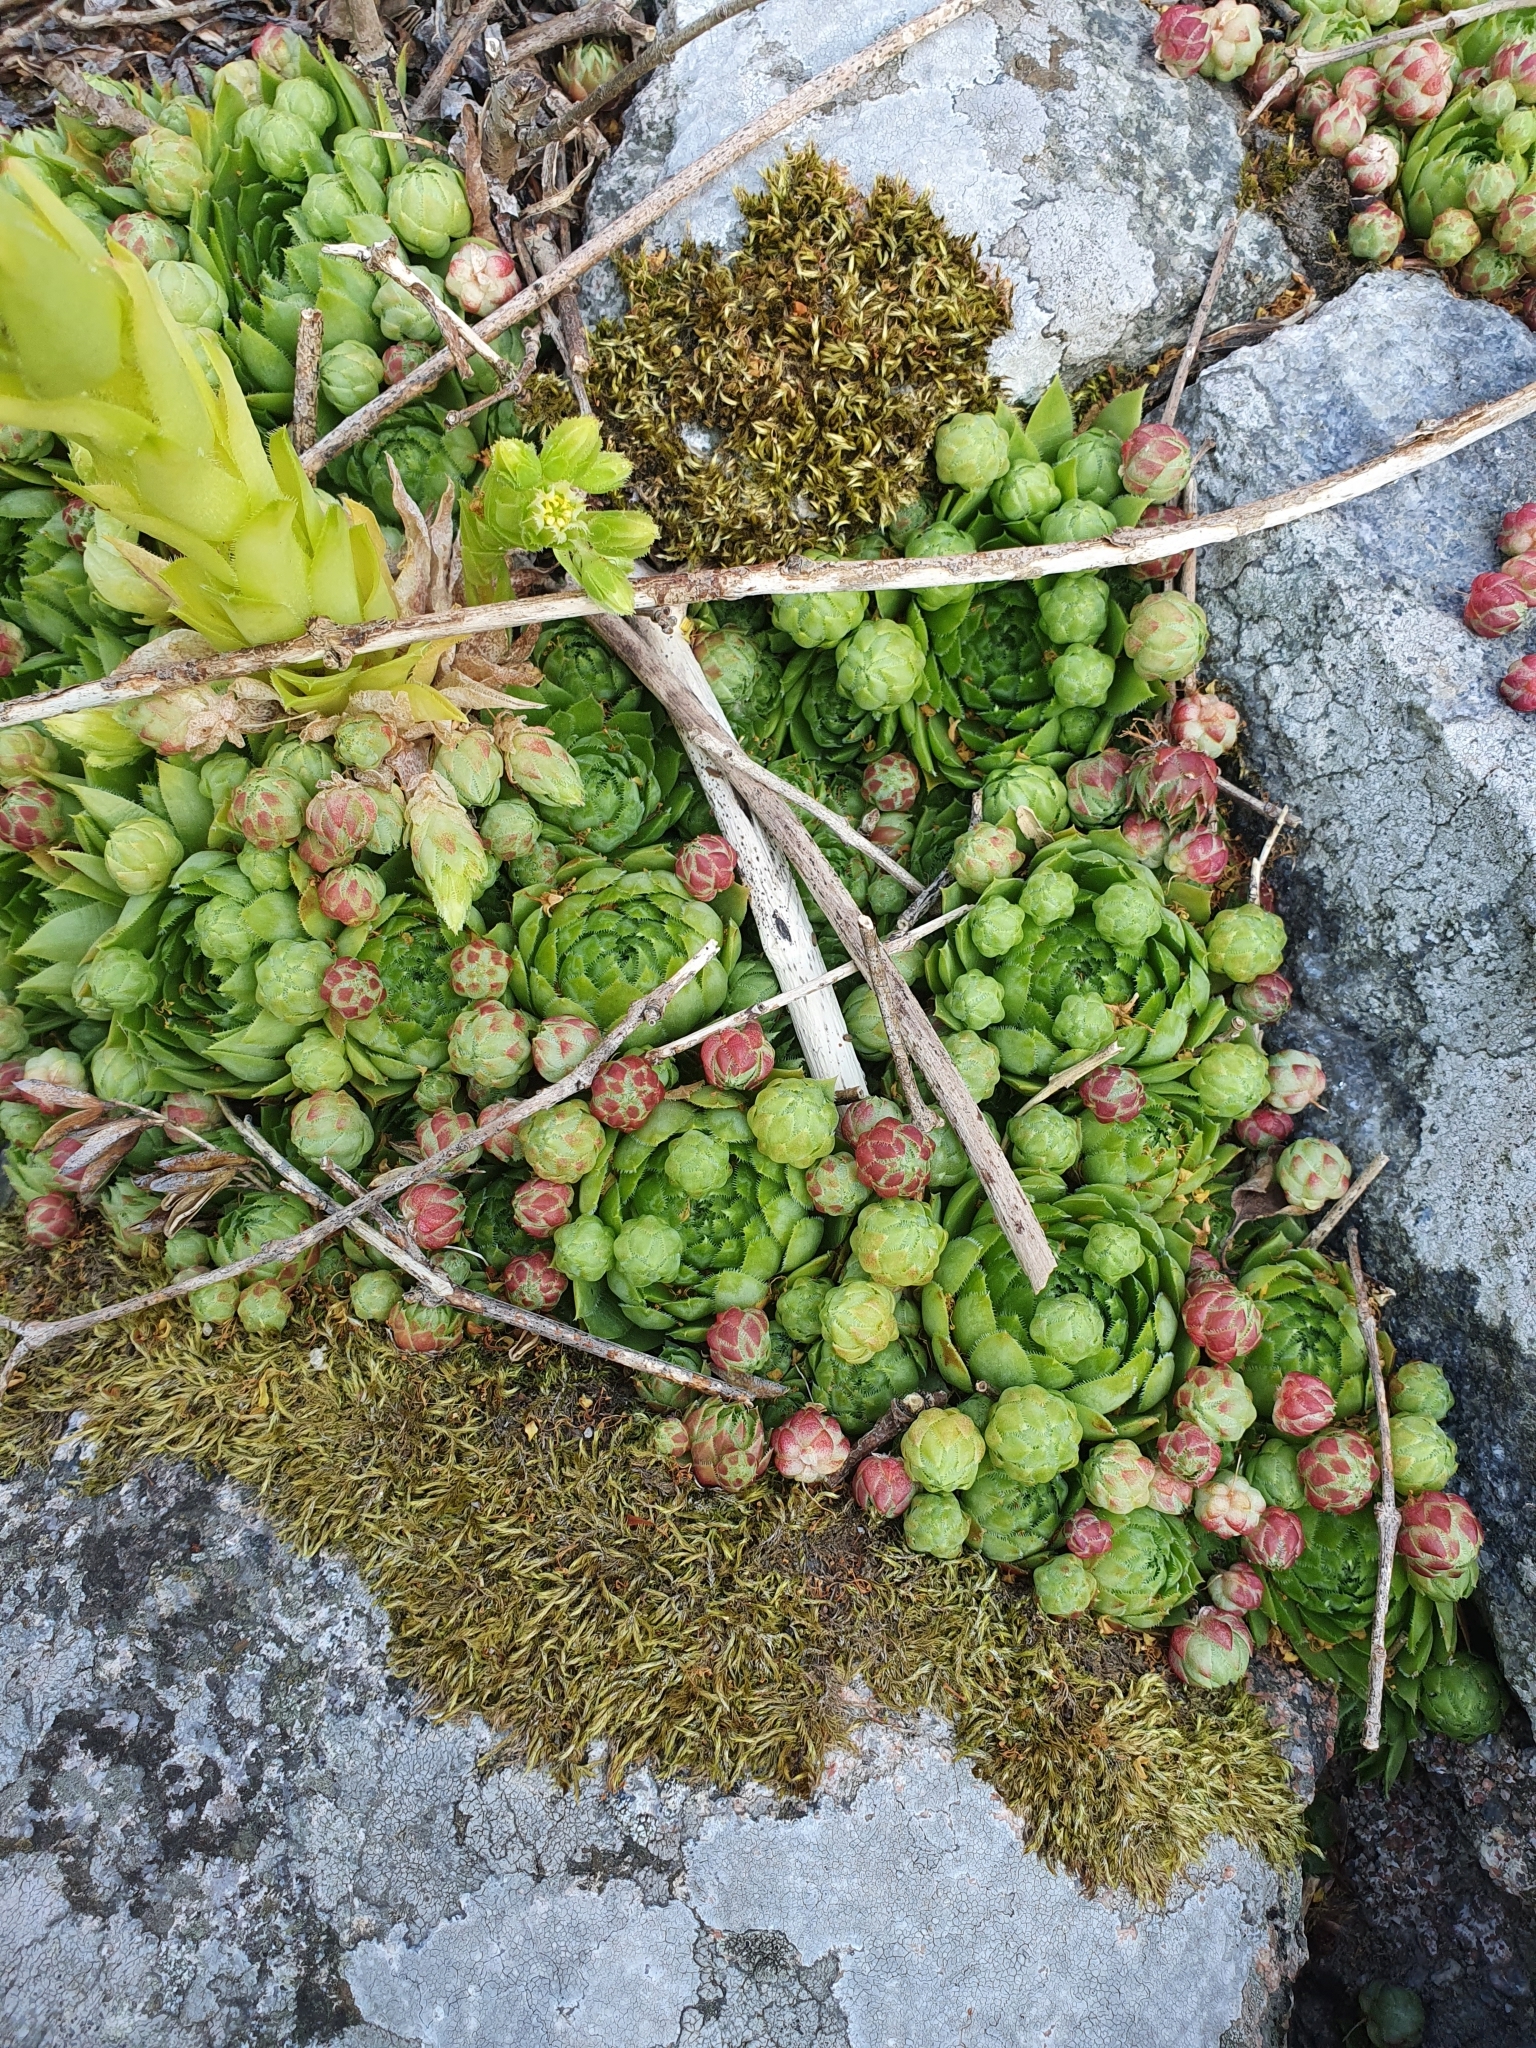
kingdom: Plantae
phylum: Tracheophyta
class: Magnoliopsida
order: Saxifragales
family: Crassulaceae
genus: Sempervivum
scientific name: Sempervivum globiferum
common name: Rolling hen-and-chicks
